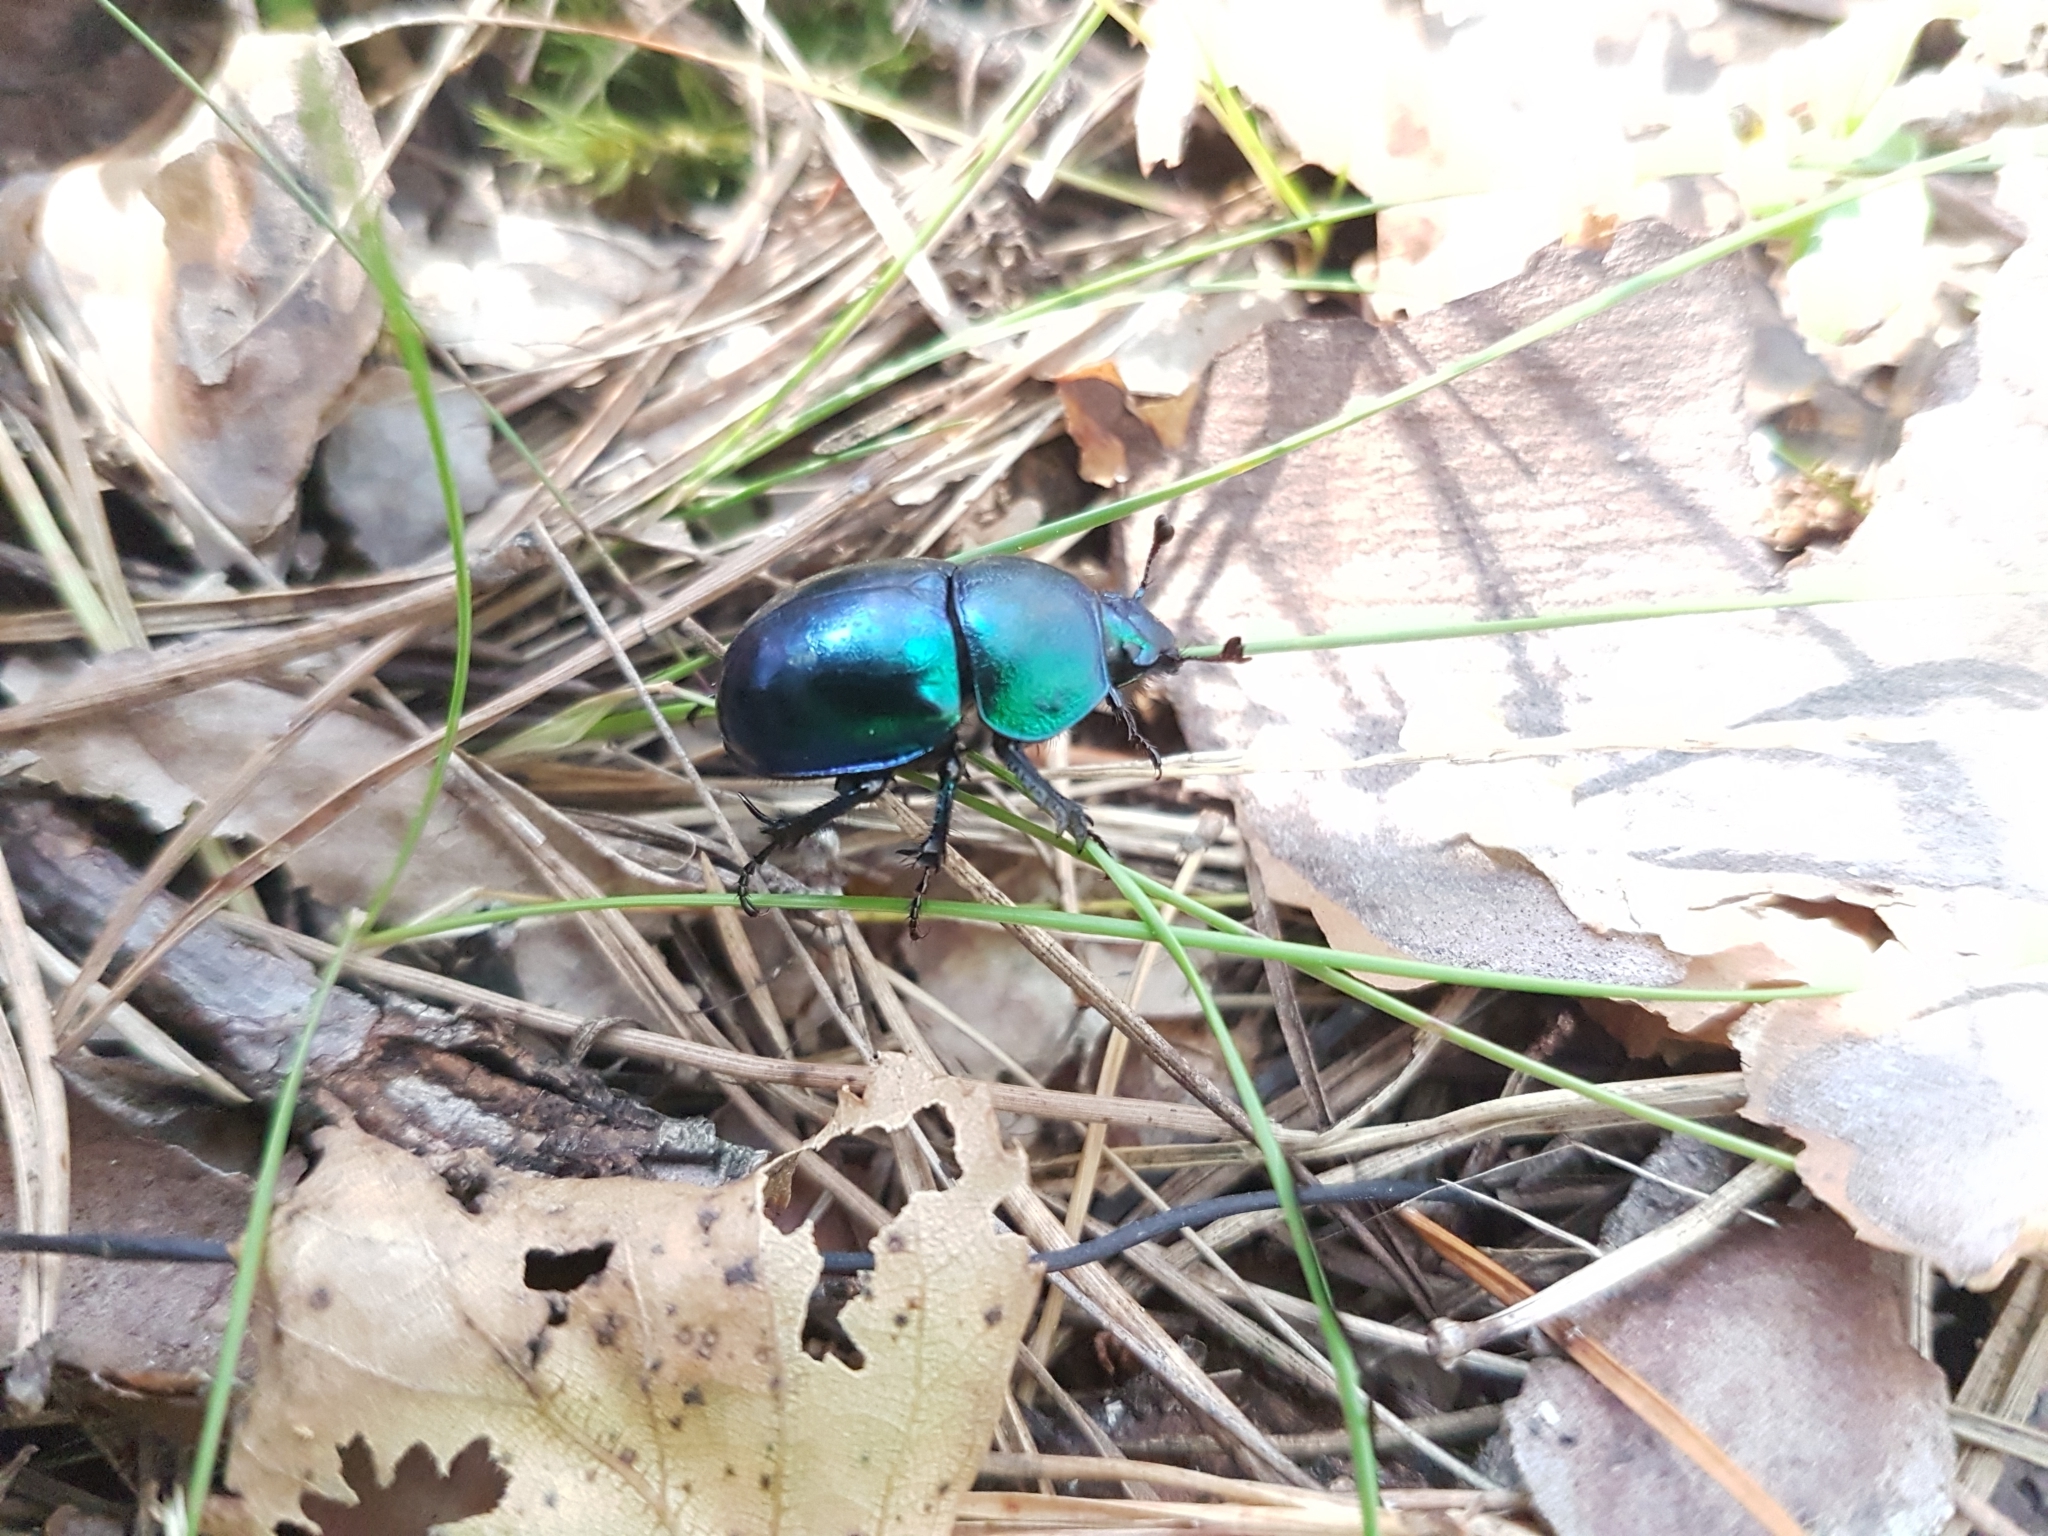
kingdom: Animalia
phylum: Arthropoda
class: Insecta
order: Coleoptera
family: Geotrupidae
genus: Trypocopris
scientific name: Trypocopris vernalis
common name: Spring dumbledor
